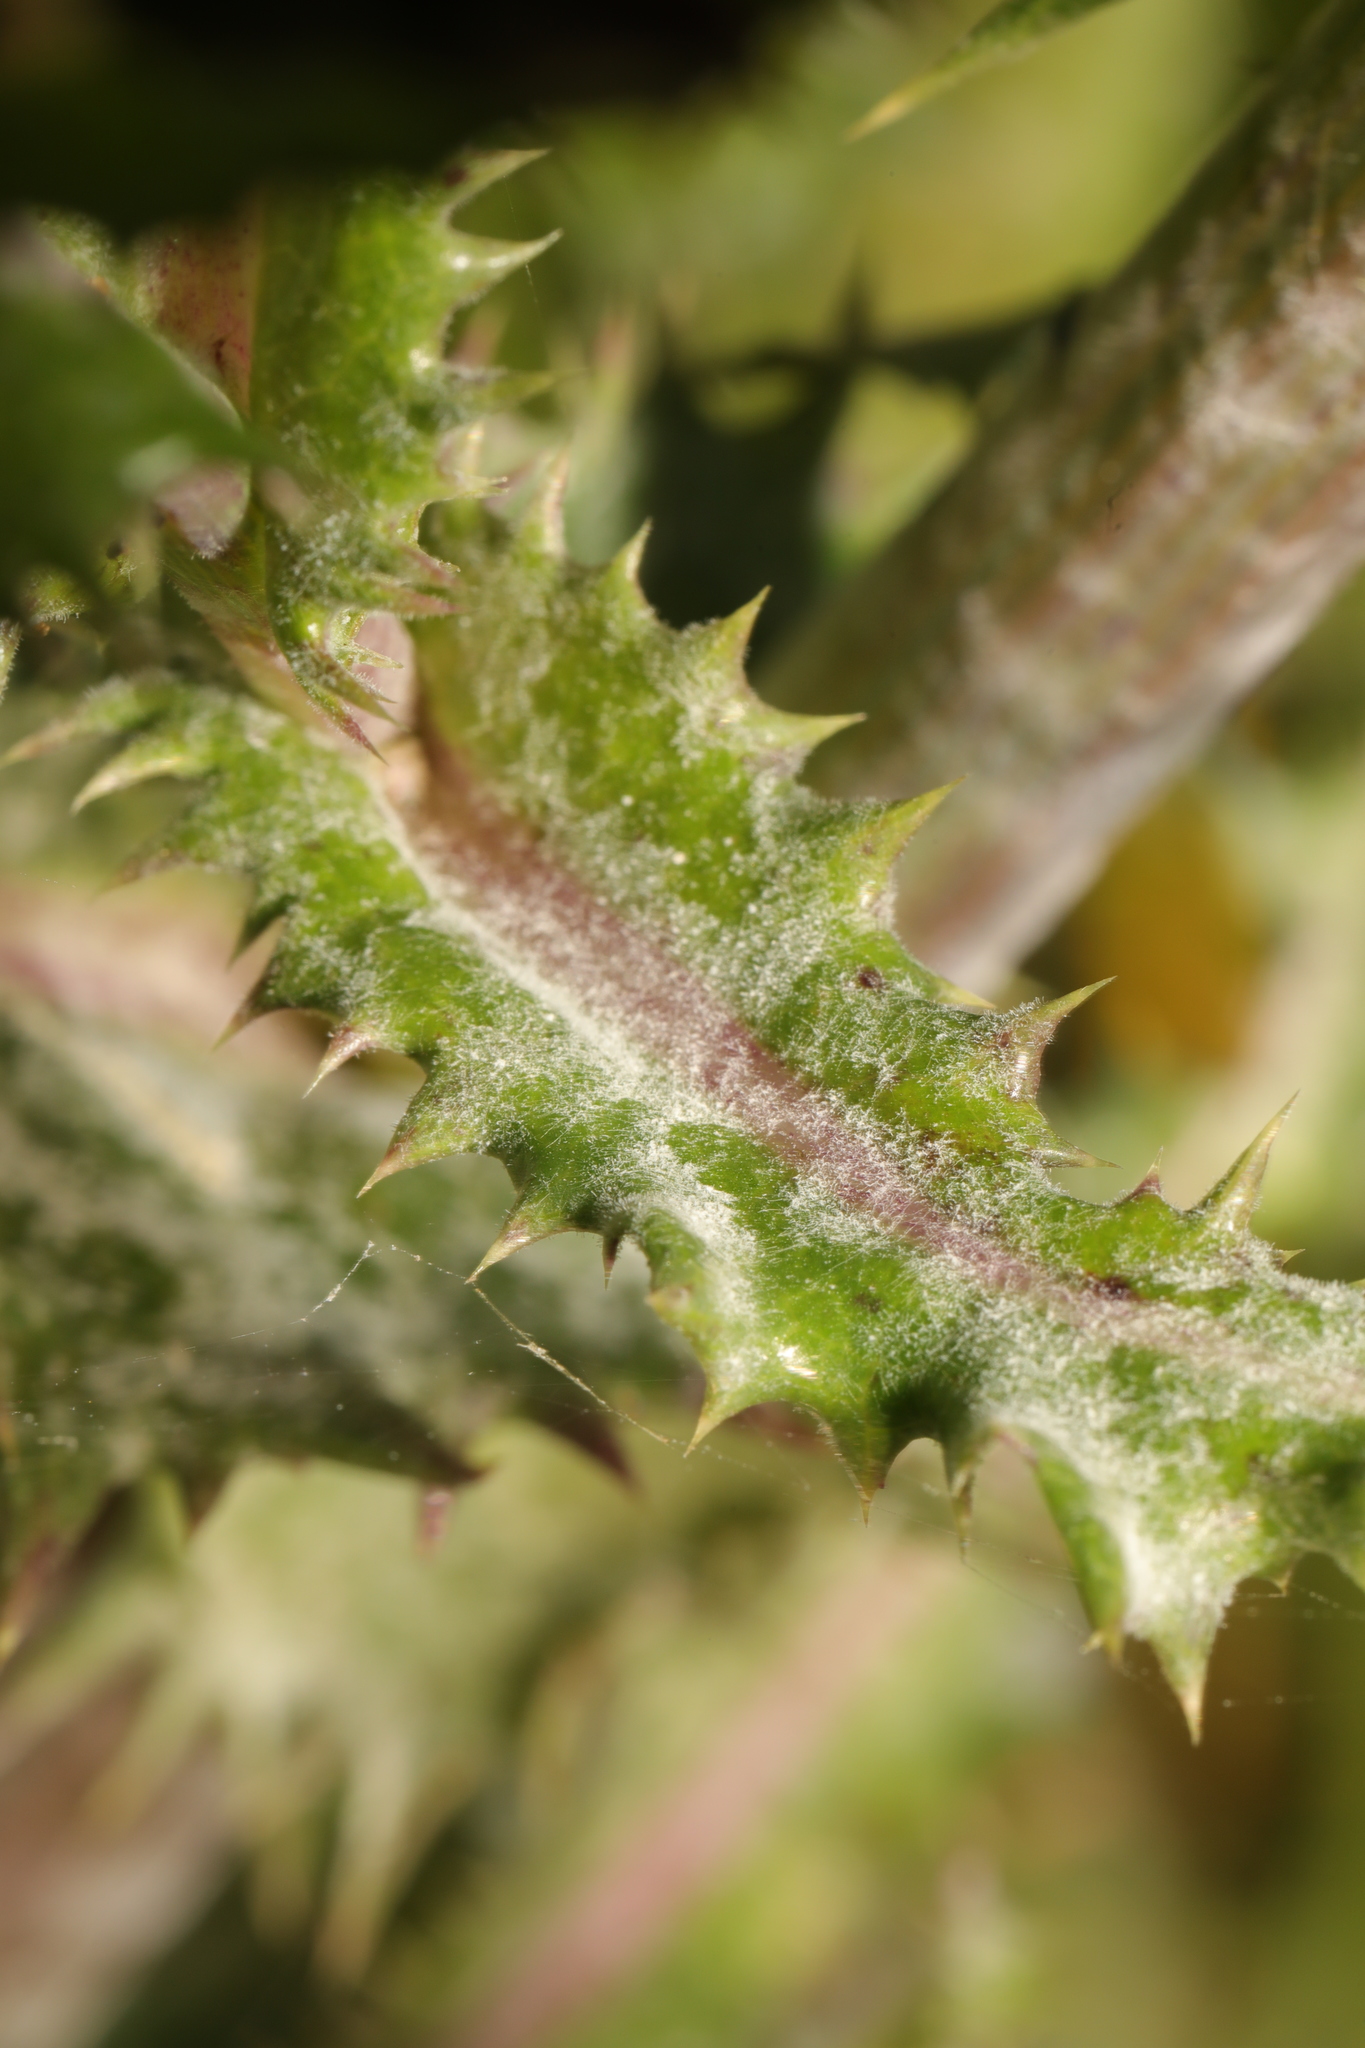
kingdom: Fungi
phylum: Ascomycota
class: Leotiomycetes
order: Helotiales
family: Erysiphaceae
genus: Golovinomyces
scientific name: Golovinomyces sonchicola
